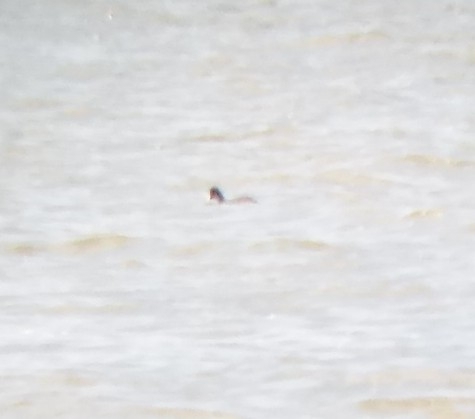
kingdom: Animalia
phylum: Chordata
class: Aves
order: Gruiformes
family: Rallidae
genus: Fulica
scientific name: Fulica atra
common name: Eurasian coot
